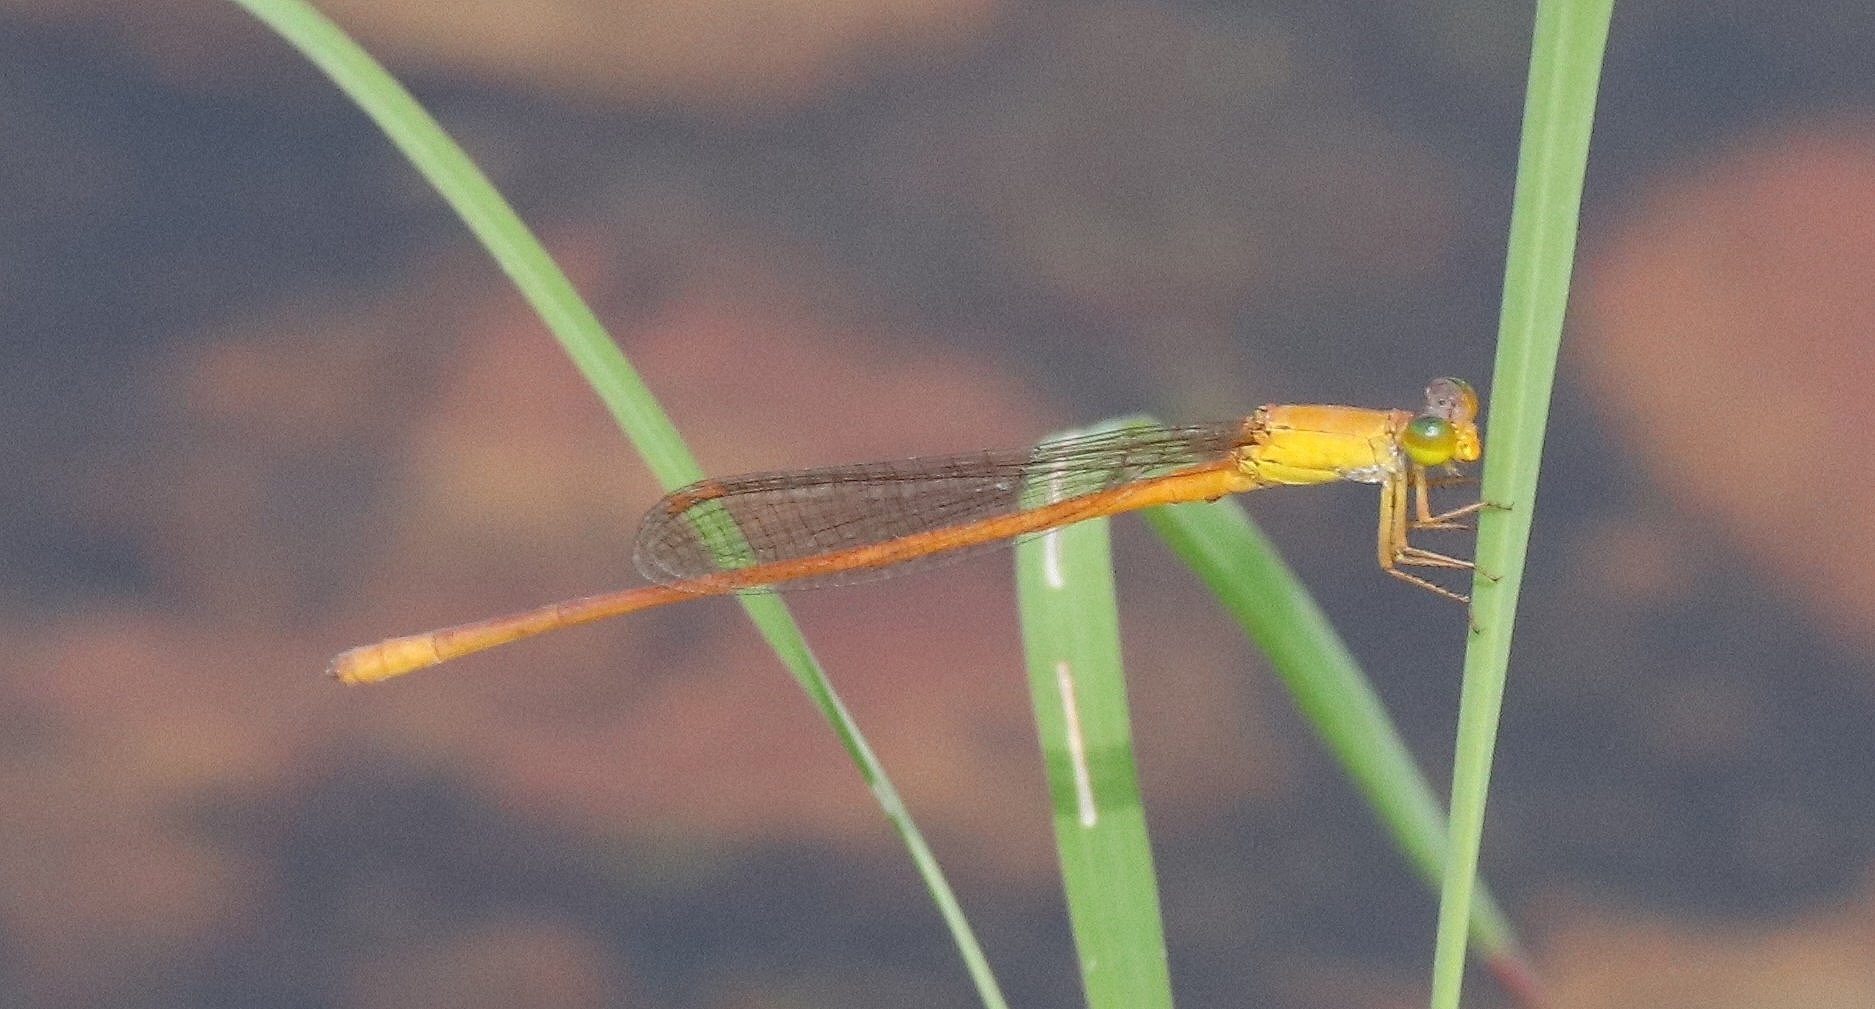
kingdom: Animalia
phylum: Arthropoda
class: Insecta
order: Odonata
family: Coenagrionidae
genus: Ceriagrion
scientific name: Ceriagrion rubiae
